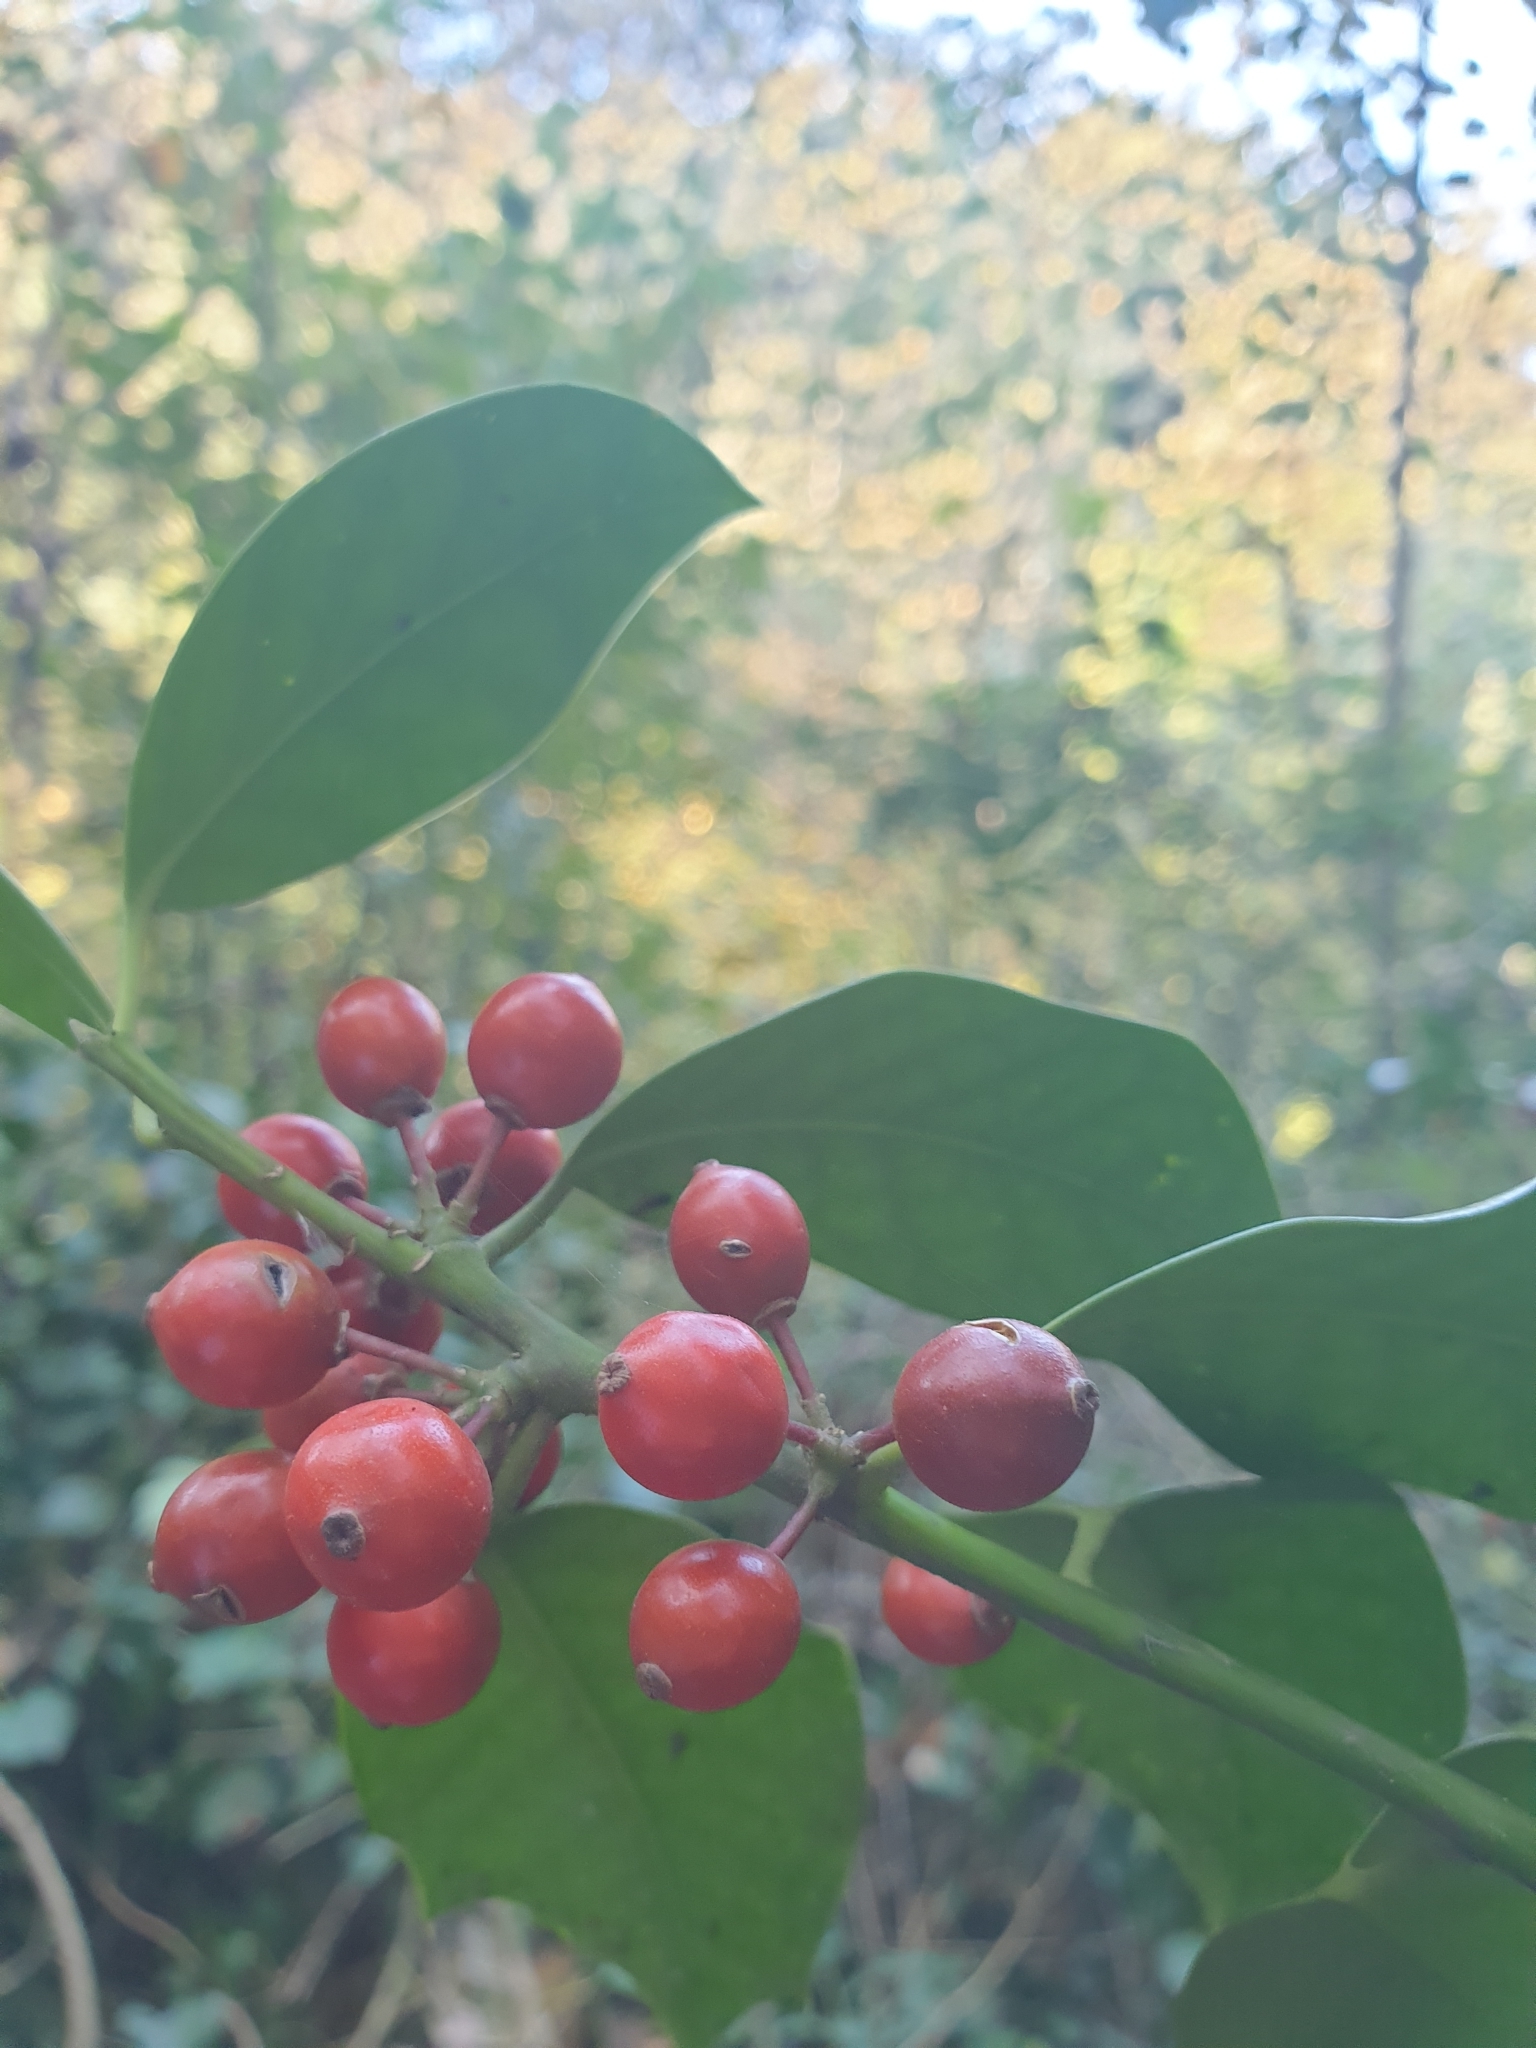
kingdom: Plantae
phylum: Tracheophyta
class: Magnoliopsida
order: Aquifoliales
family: Aquifoliaceae
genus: Ilex
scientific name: Ilex aquifolium
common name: English holly
